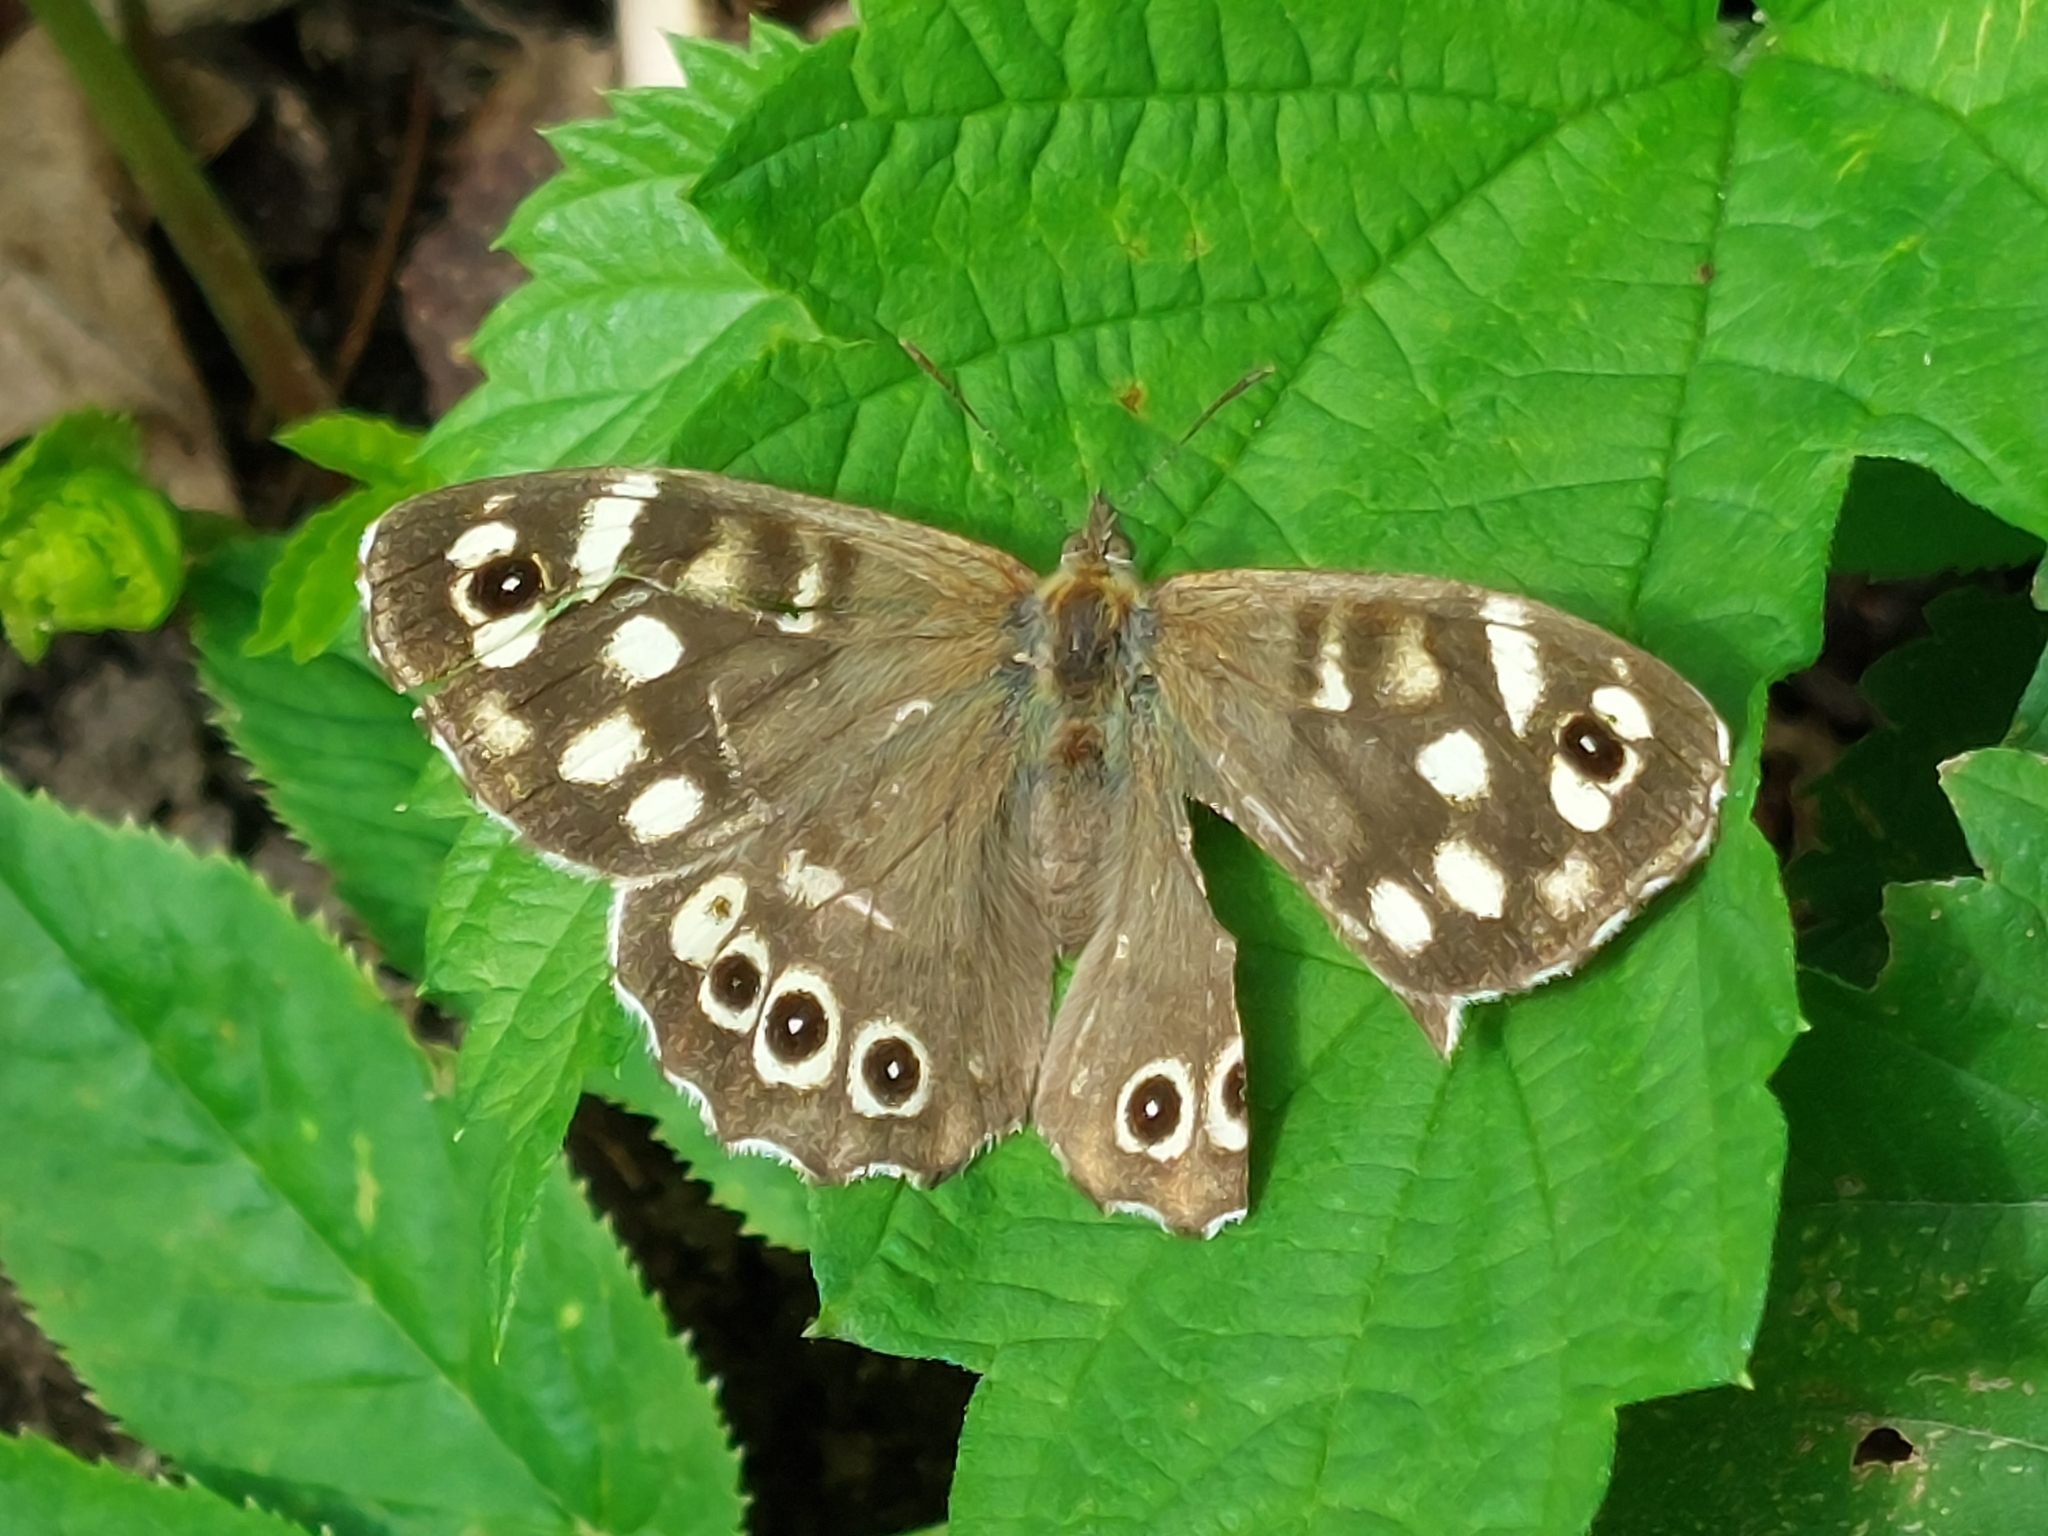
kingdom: Animalia
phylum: Arthropoda
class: Insecta
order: Lepidoptera
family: Nymphalidae
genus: Pararge
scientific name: Pararge aegeria
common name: Speckled wood
